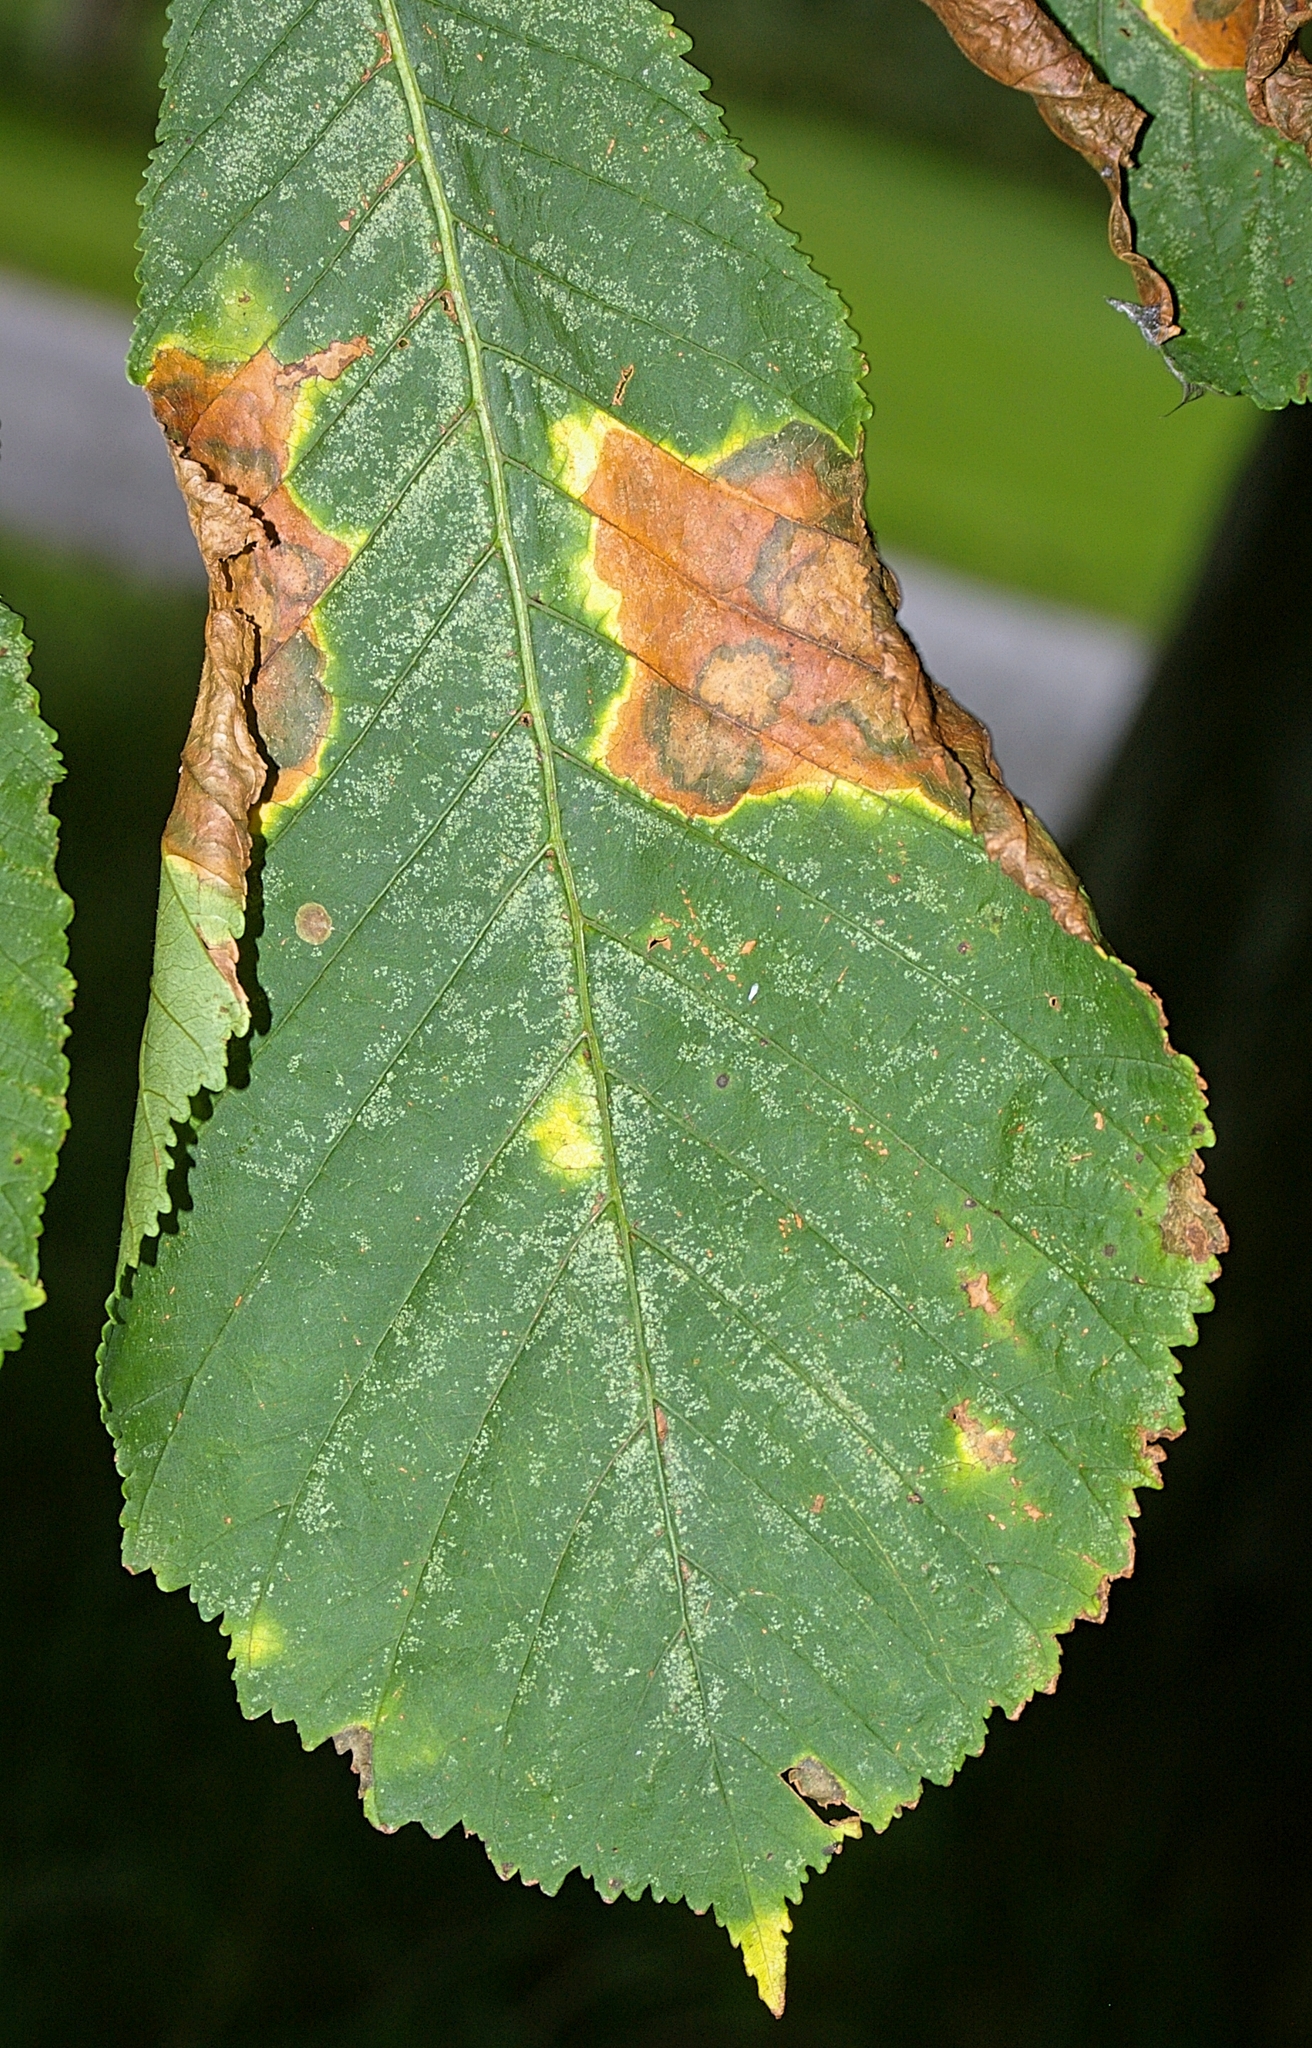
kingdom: Fungi
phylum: Ascomycota
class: Dothideomycetes
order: Botryosphaeriales
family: Phyllostictaceae
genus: Phyllosticta
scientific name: Phyllosticta paviae
